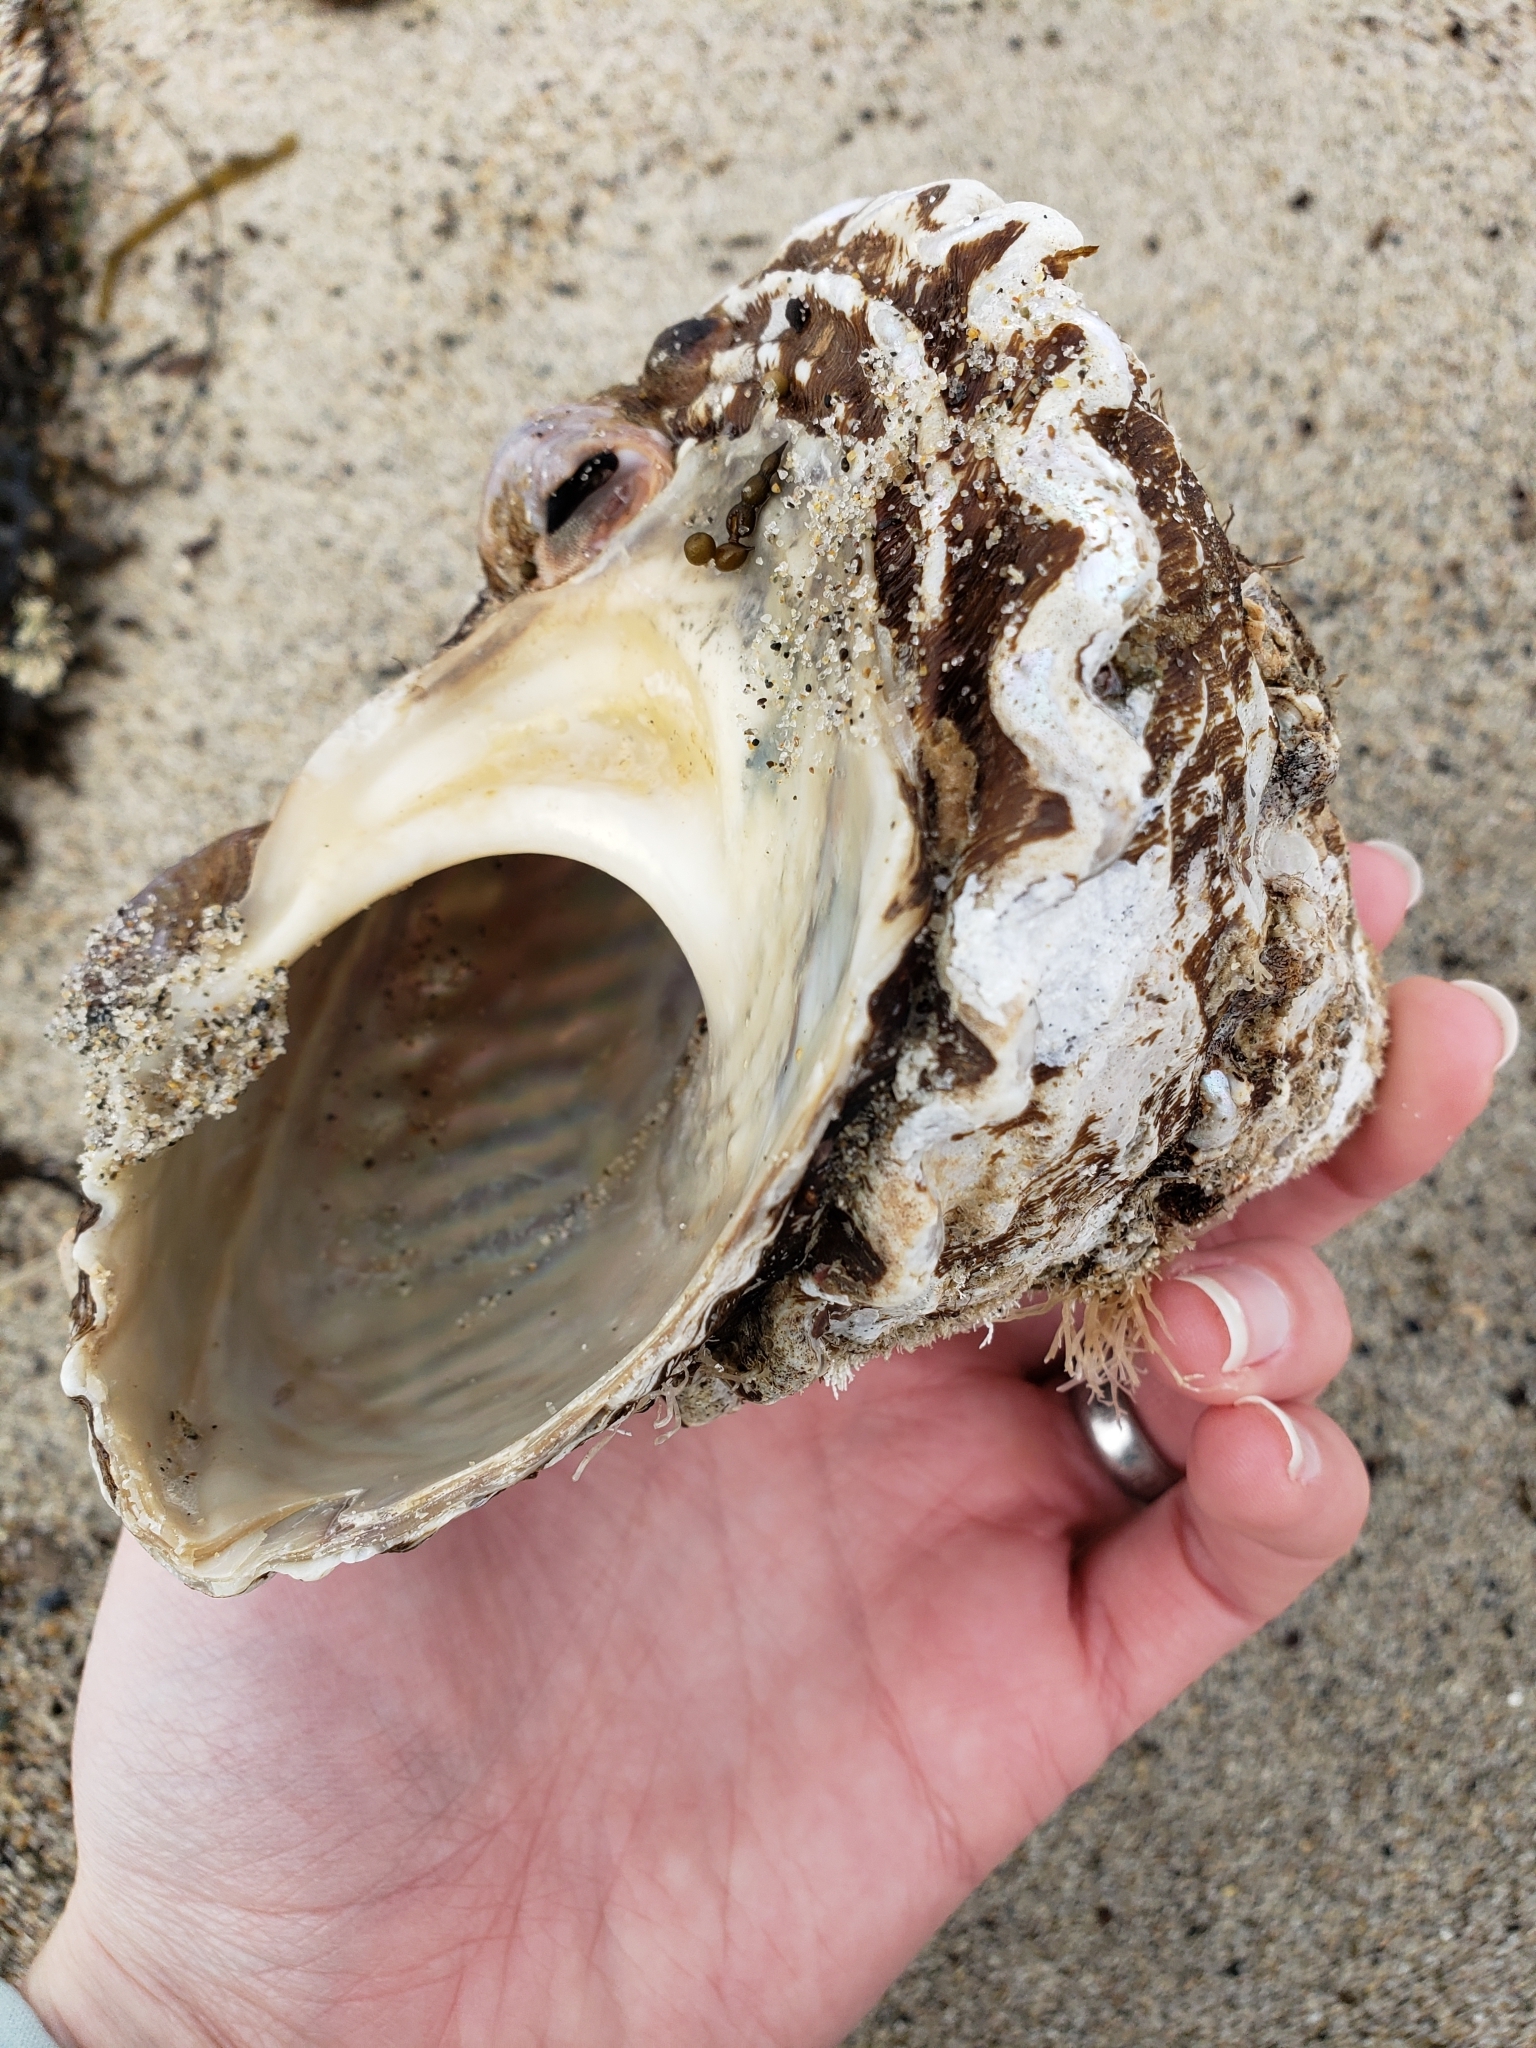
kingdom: Animalia
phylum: Mollusca
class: Gastropoda
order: Trochida
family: Turbinidae
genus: Megastraea
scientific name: Megastraea undosa
